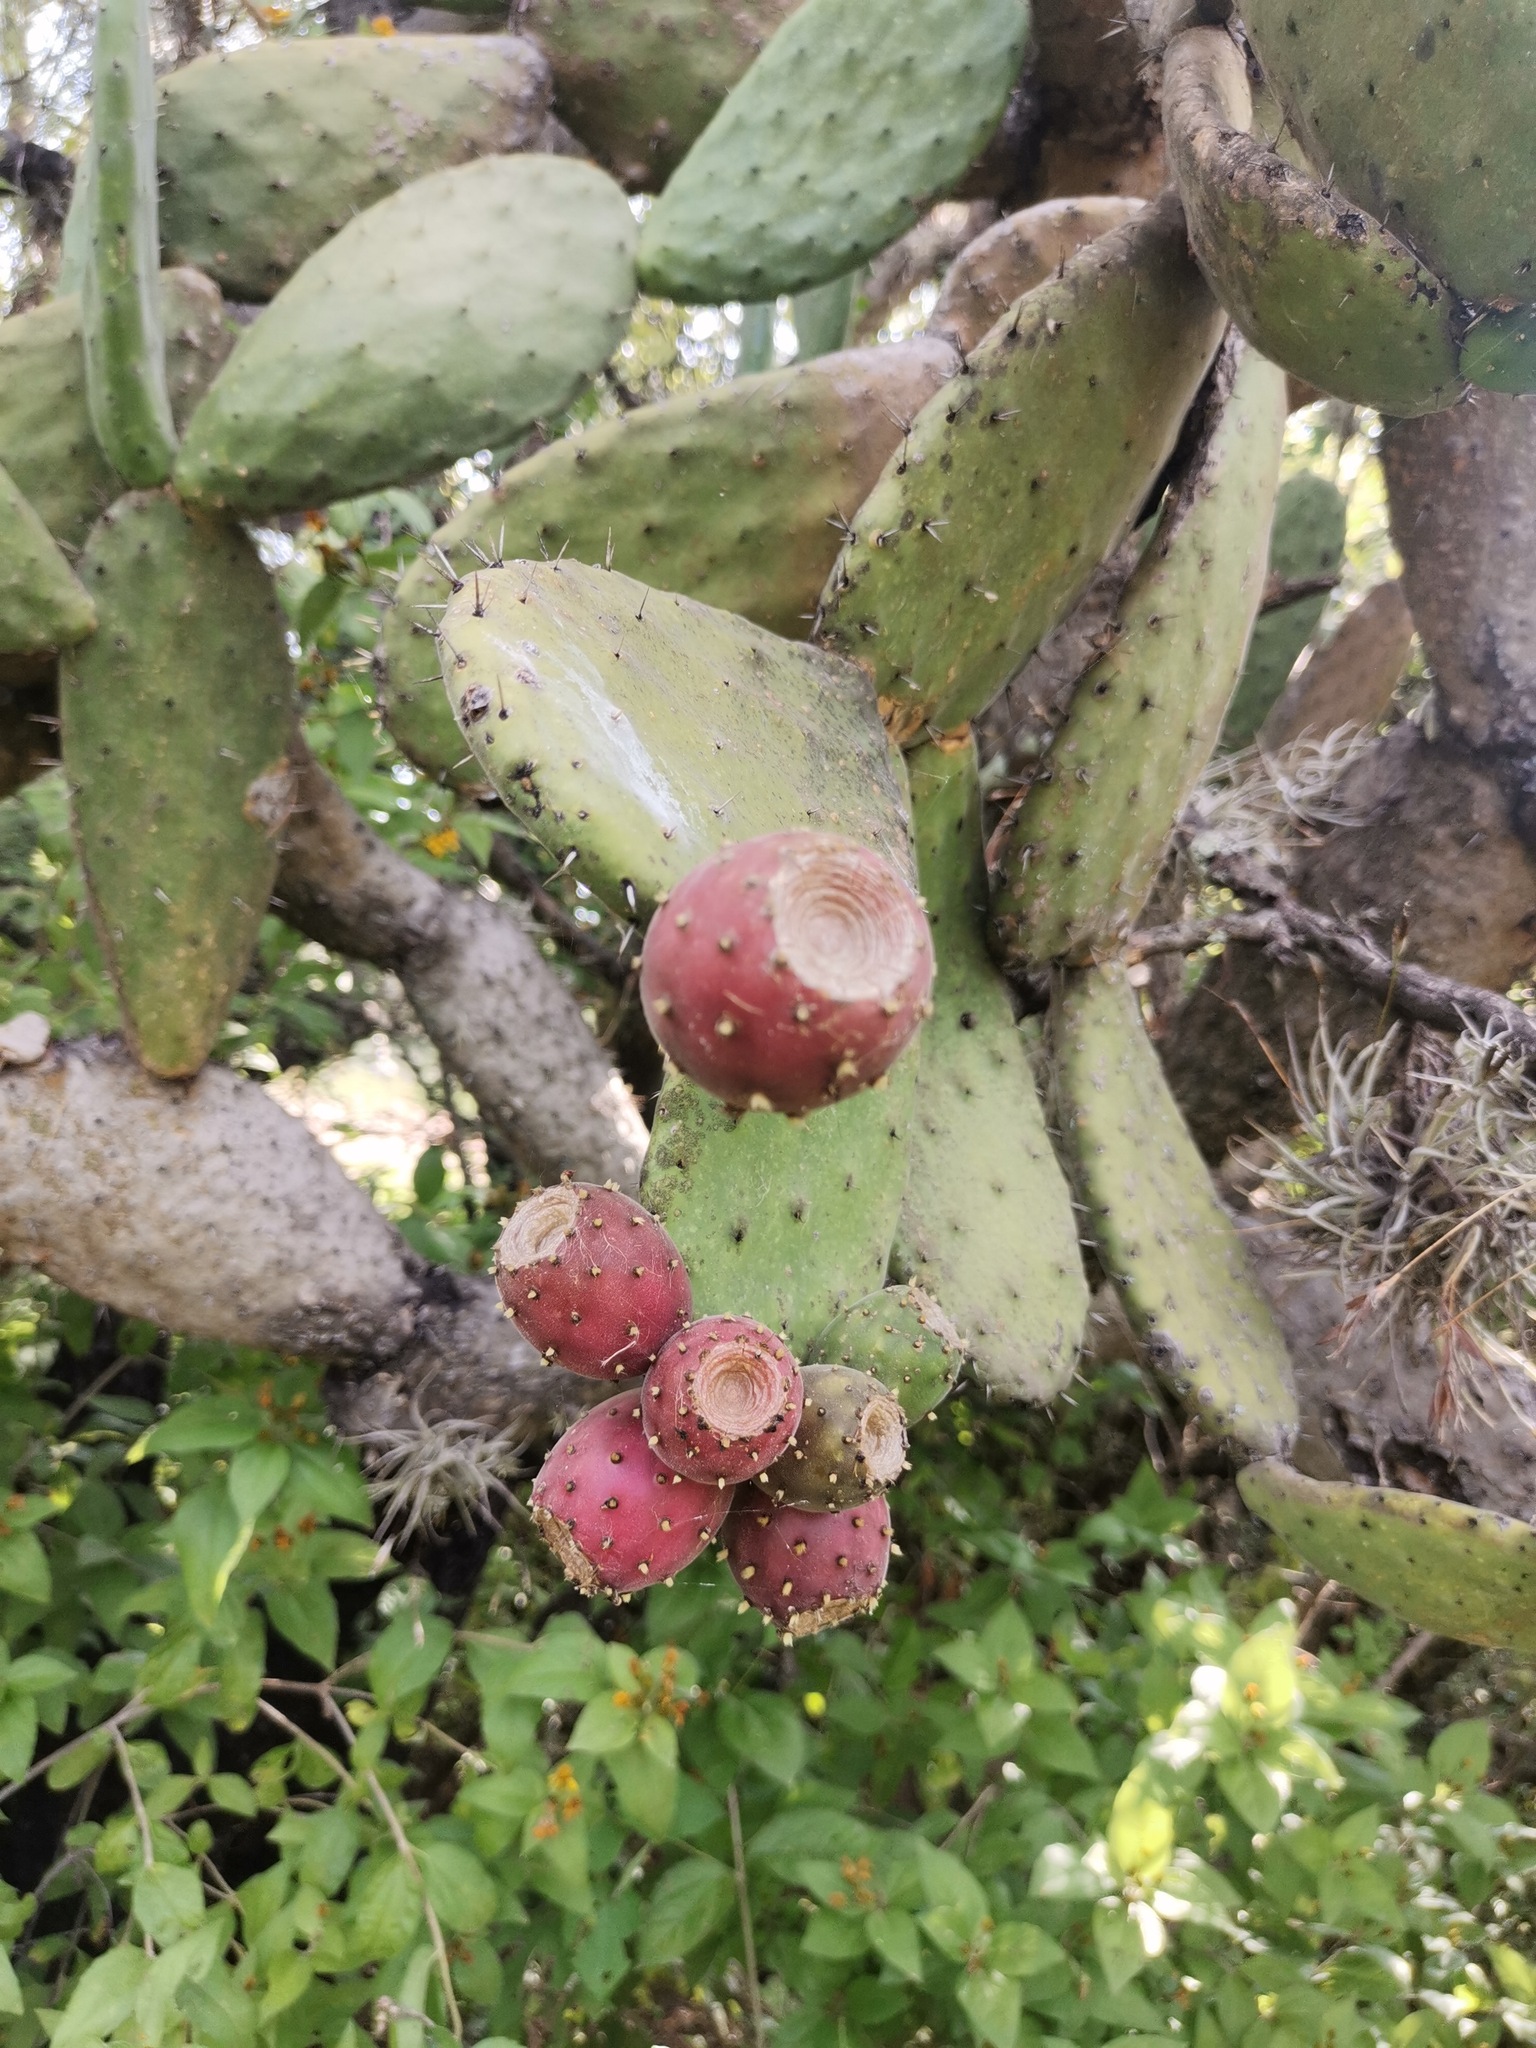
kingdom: Plantae
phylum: Tracheophyta
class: Magnoliopsida
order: Caryophyllales
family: Cactaceae
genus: Opuntia
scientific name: Opuntia tomentosa
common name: Woollyjoint pricklypear
